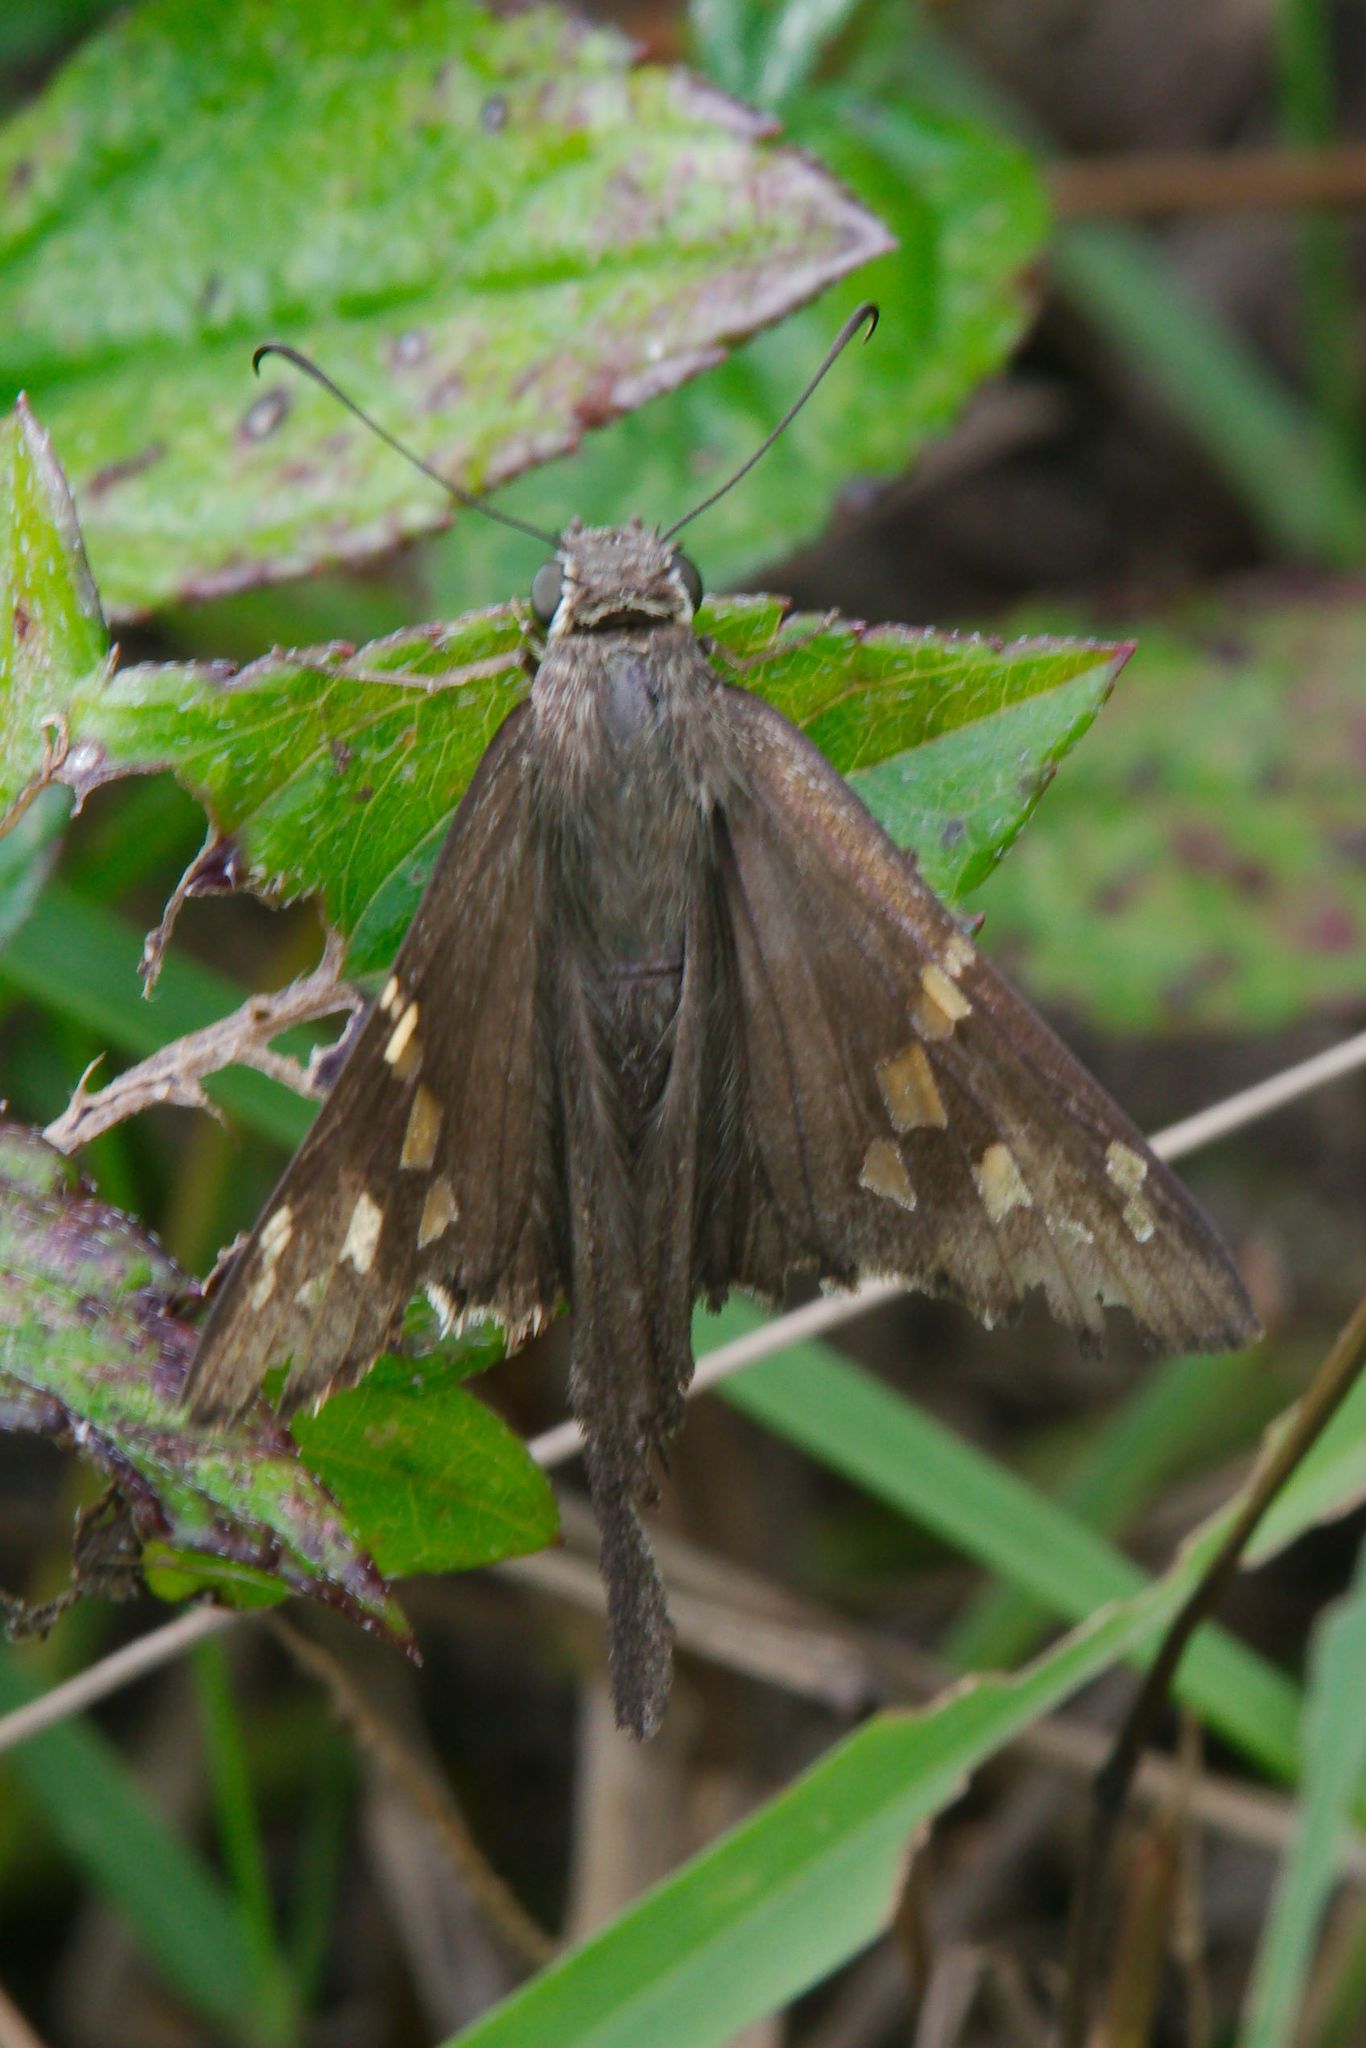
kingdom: Animalia
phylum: Arthropoda
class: Insecta
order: Lepidoptera
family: Hesperiidae
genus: Thorybes
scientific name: Thorybes
